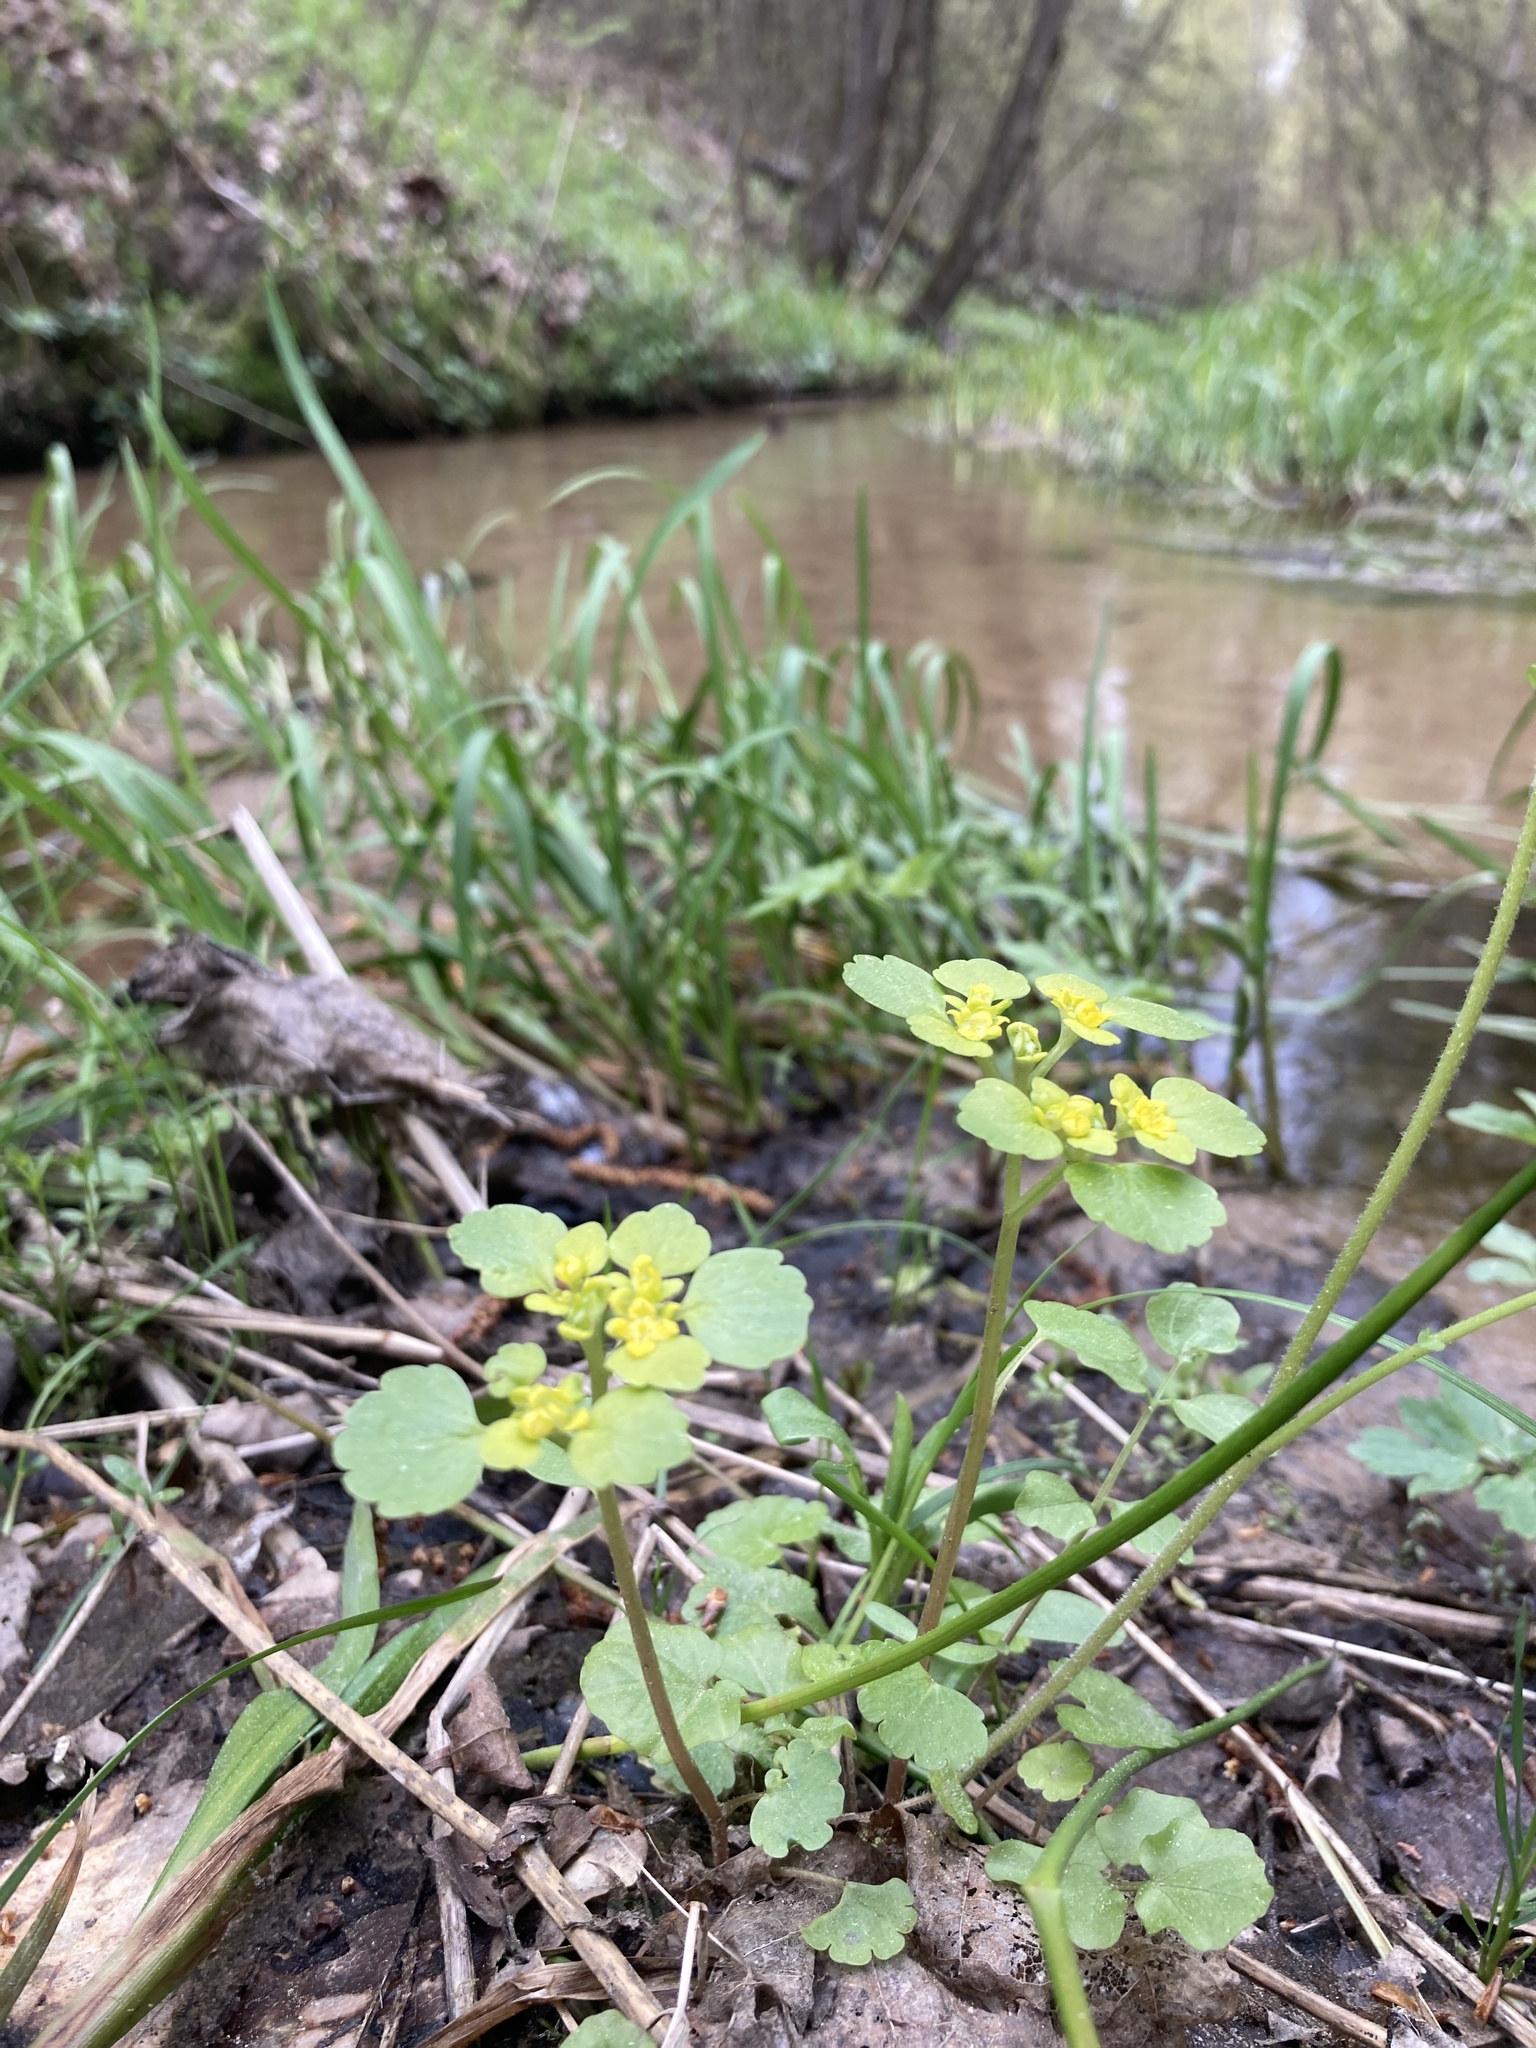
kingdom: Plantae
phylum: Tracheophyta
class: Magnoliopsida
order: Saxifragales
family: Saxifragaceae
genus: Chrysosplenium
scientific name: Chrysosplenium alternifolium
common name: Alternate-leaved golden-saxifrage
